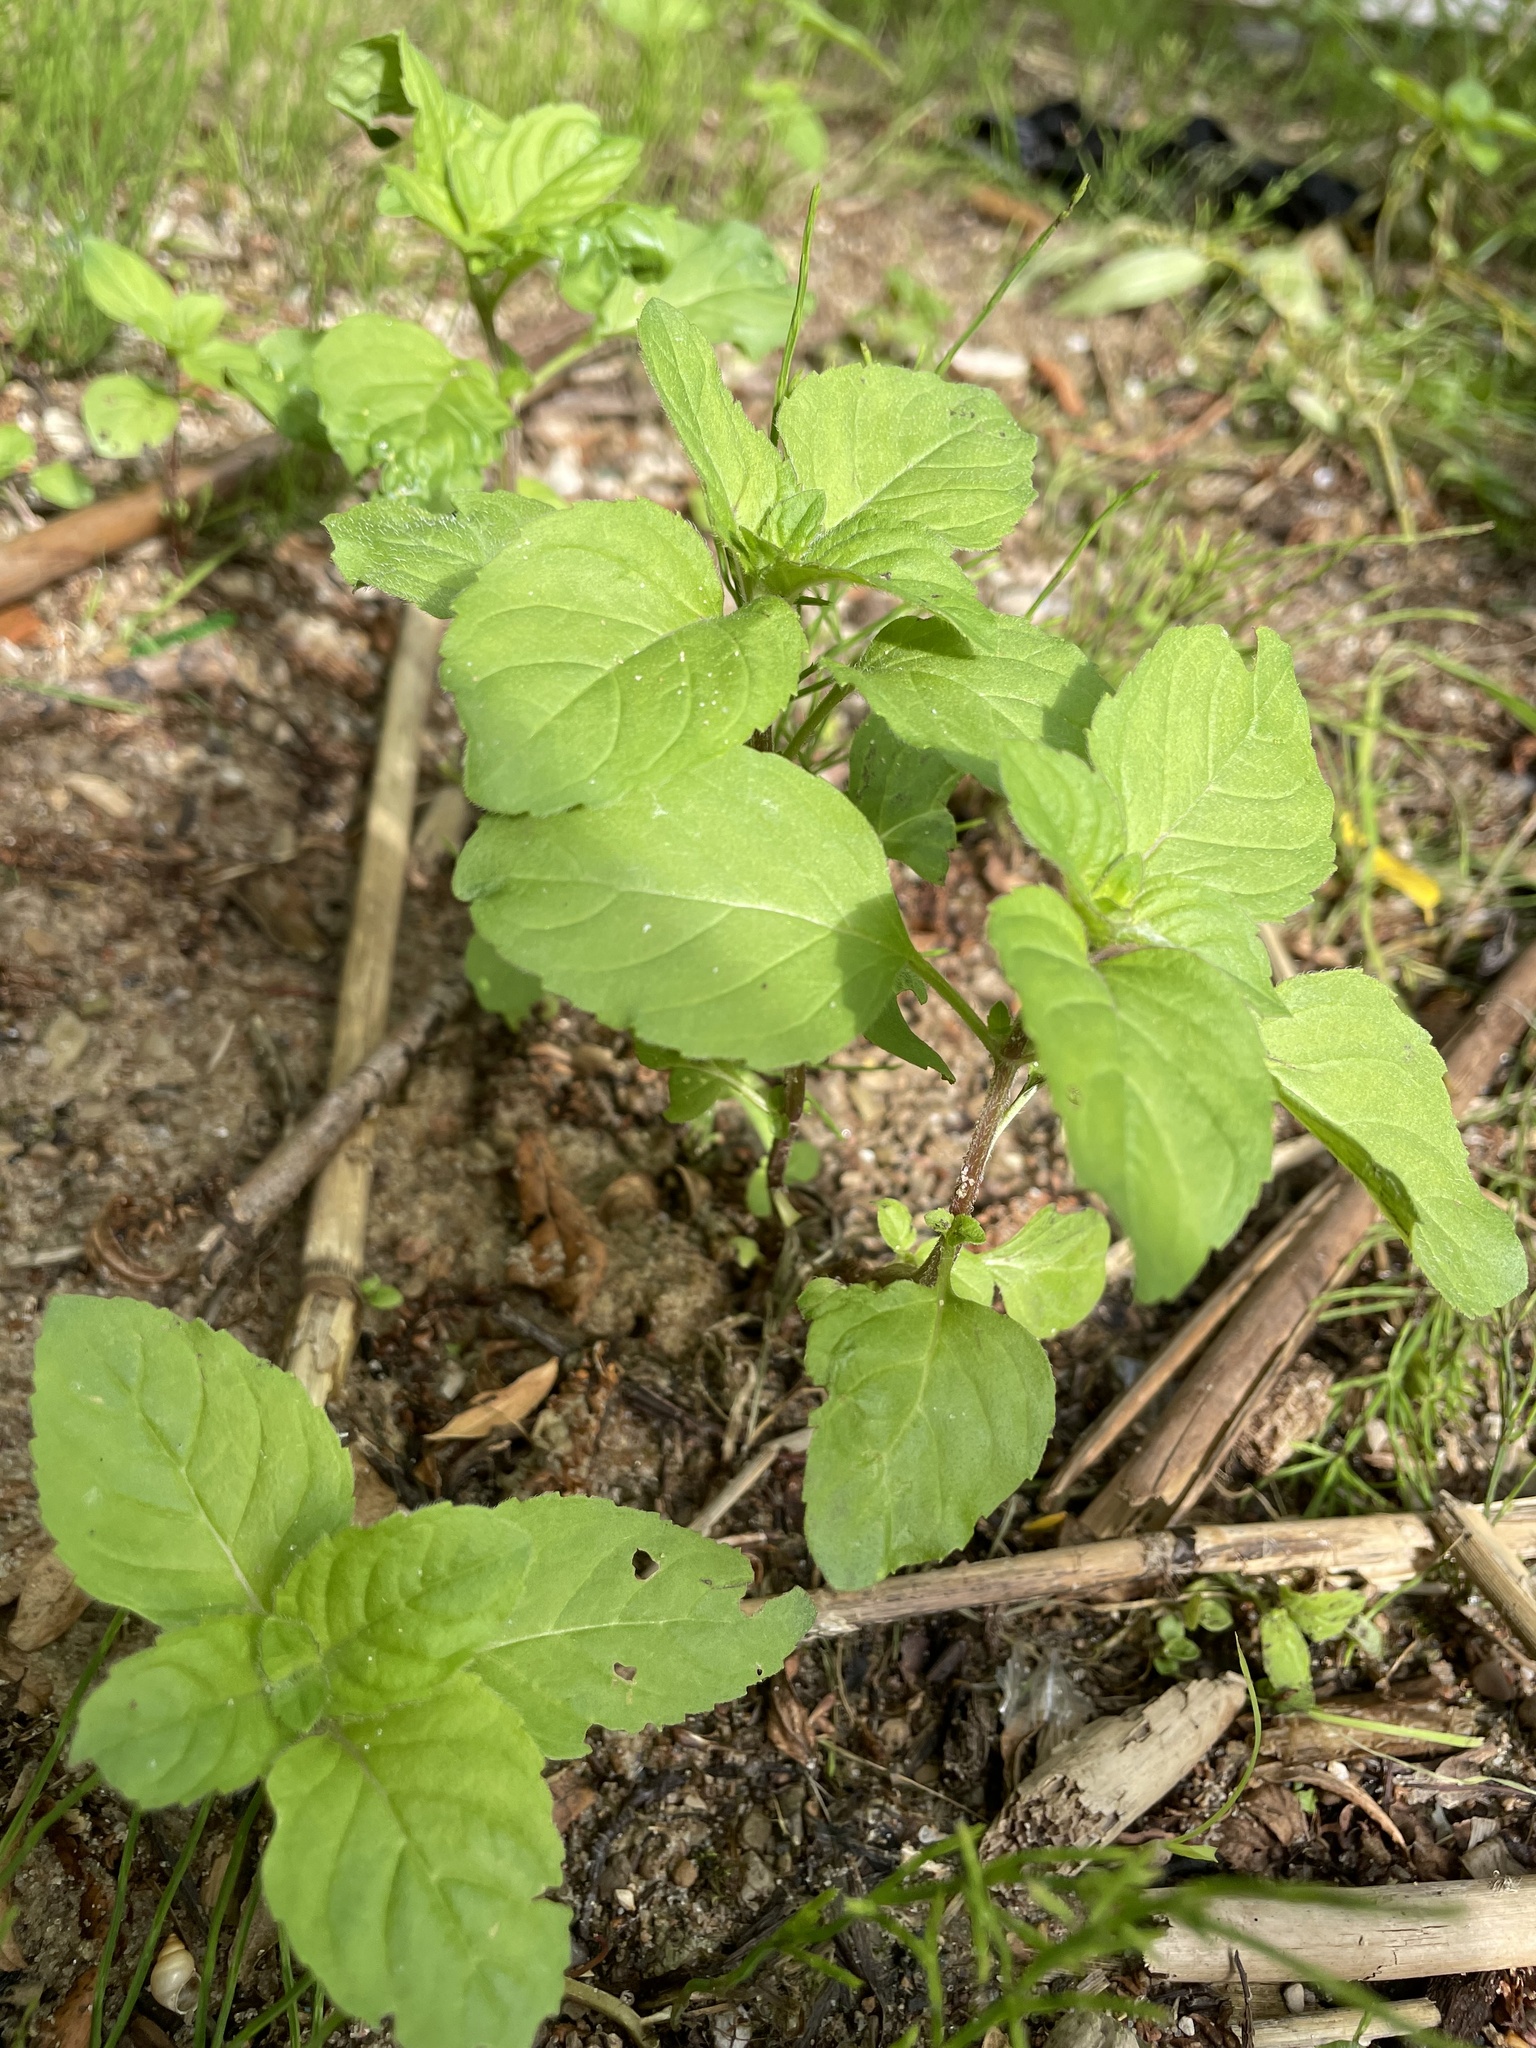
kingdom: Plantae
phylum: Tracheophyta
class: Magnoliopsida
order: Lamiales
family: Lamiaceae
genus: Mentha
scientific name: Mentha arvensis
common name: Corn mint
